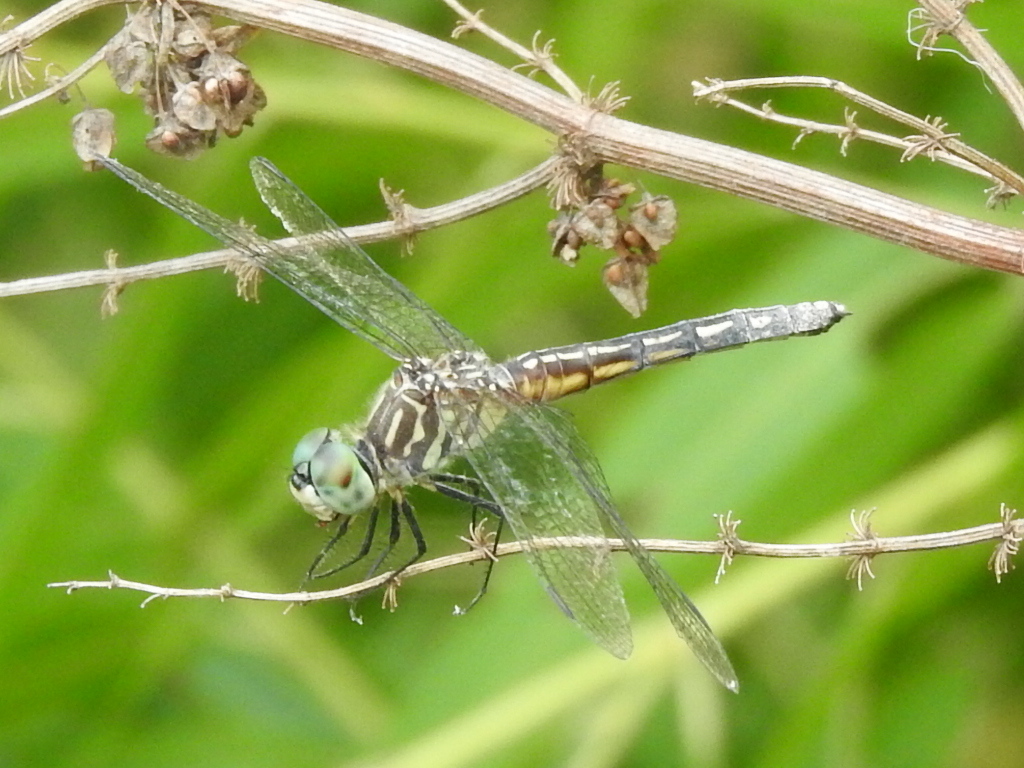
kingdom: Animalia
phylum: Arthropoda
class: Insecta
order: Odonata
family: Libellulidae
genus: Pachydiplax
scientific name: Pachydiplax longipennis
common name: Blue dasher
